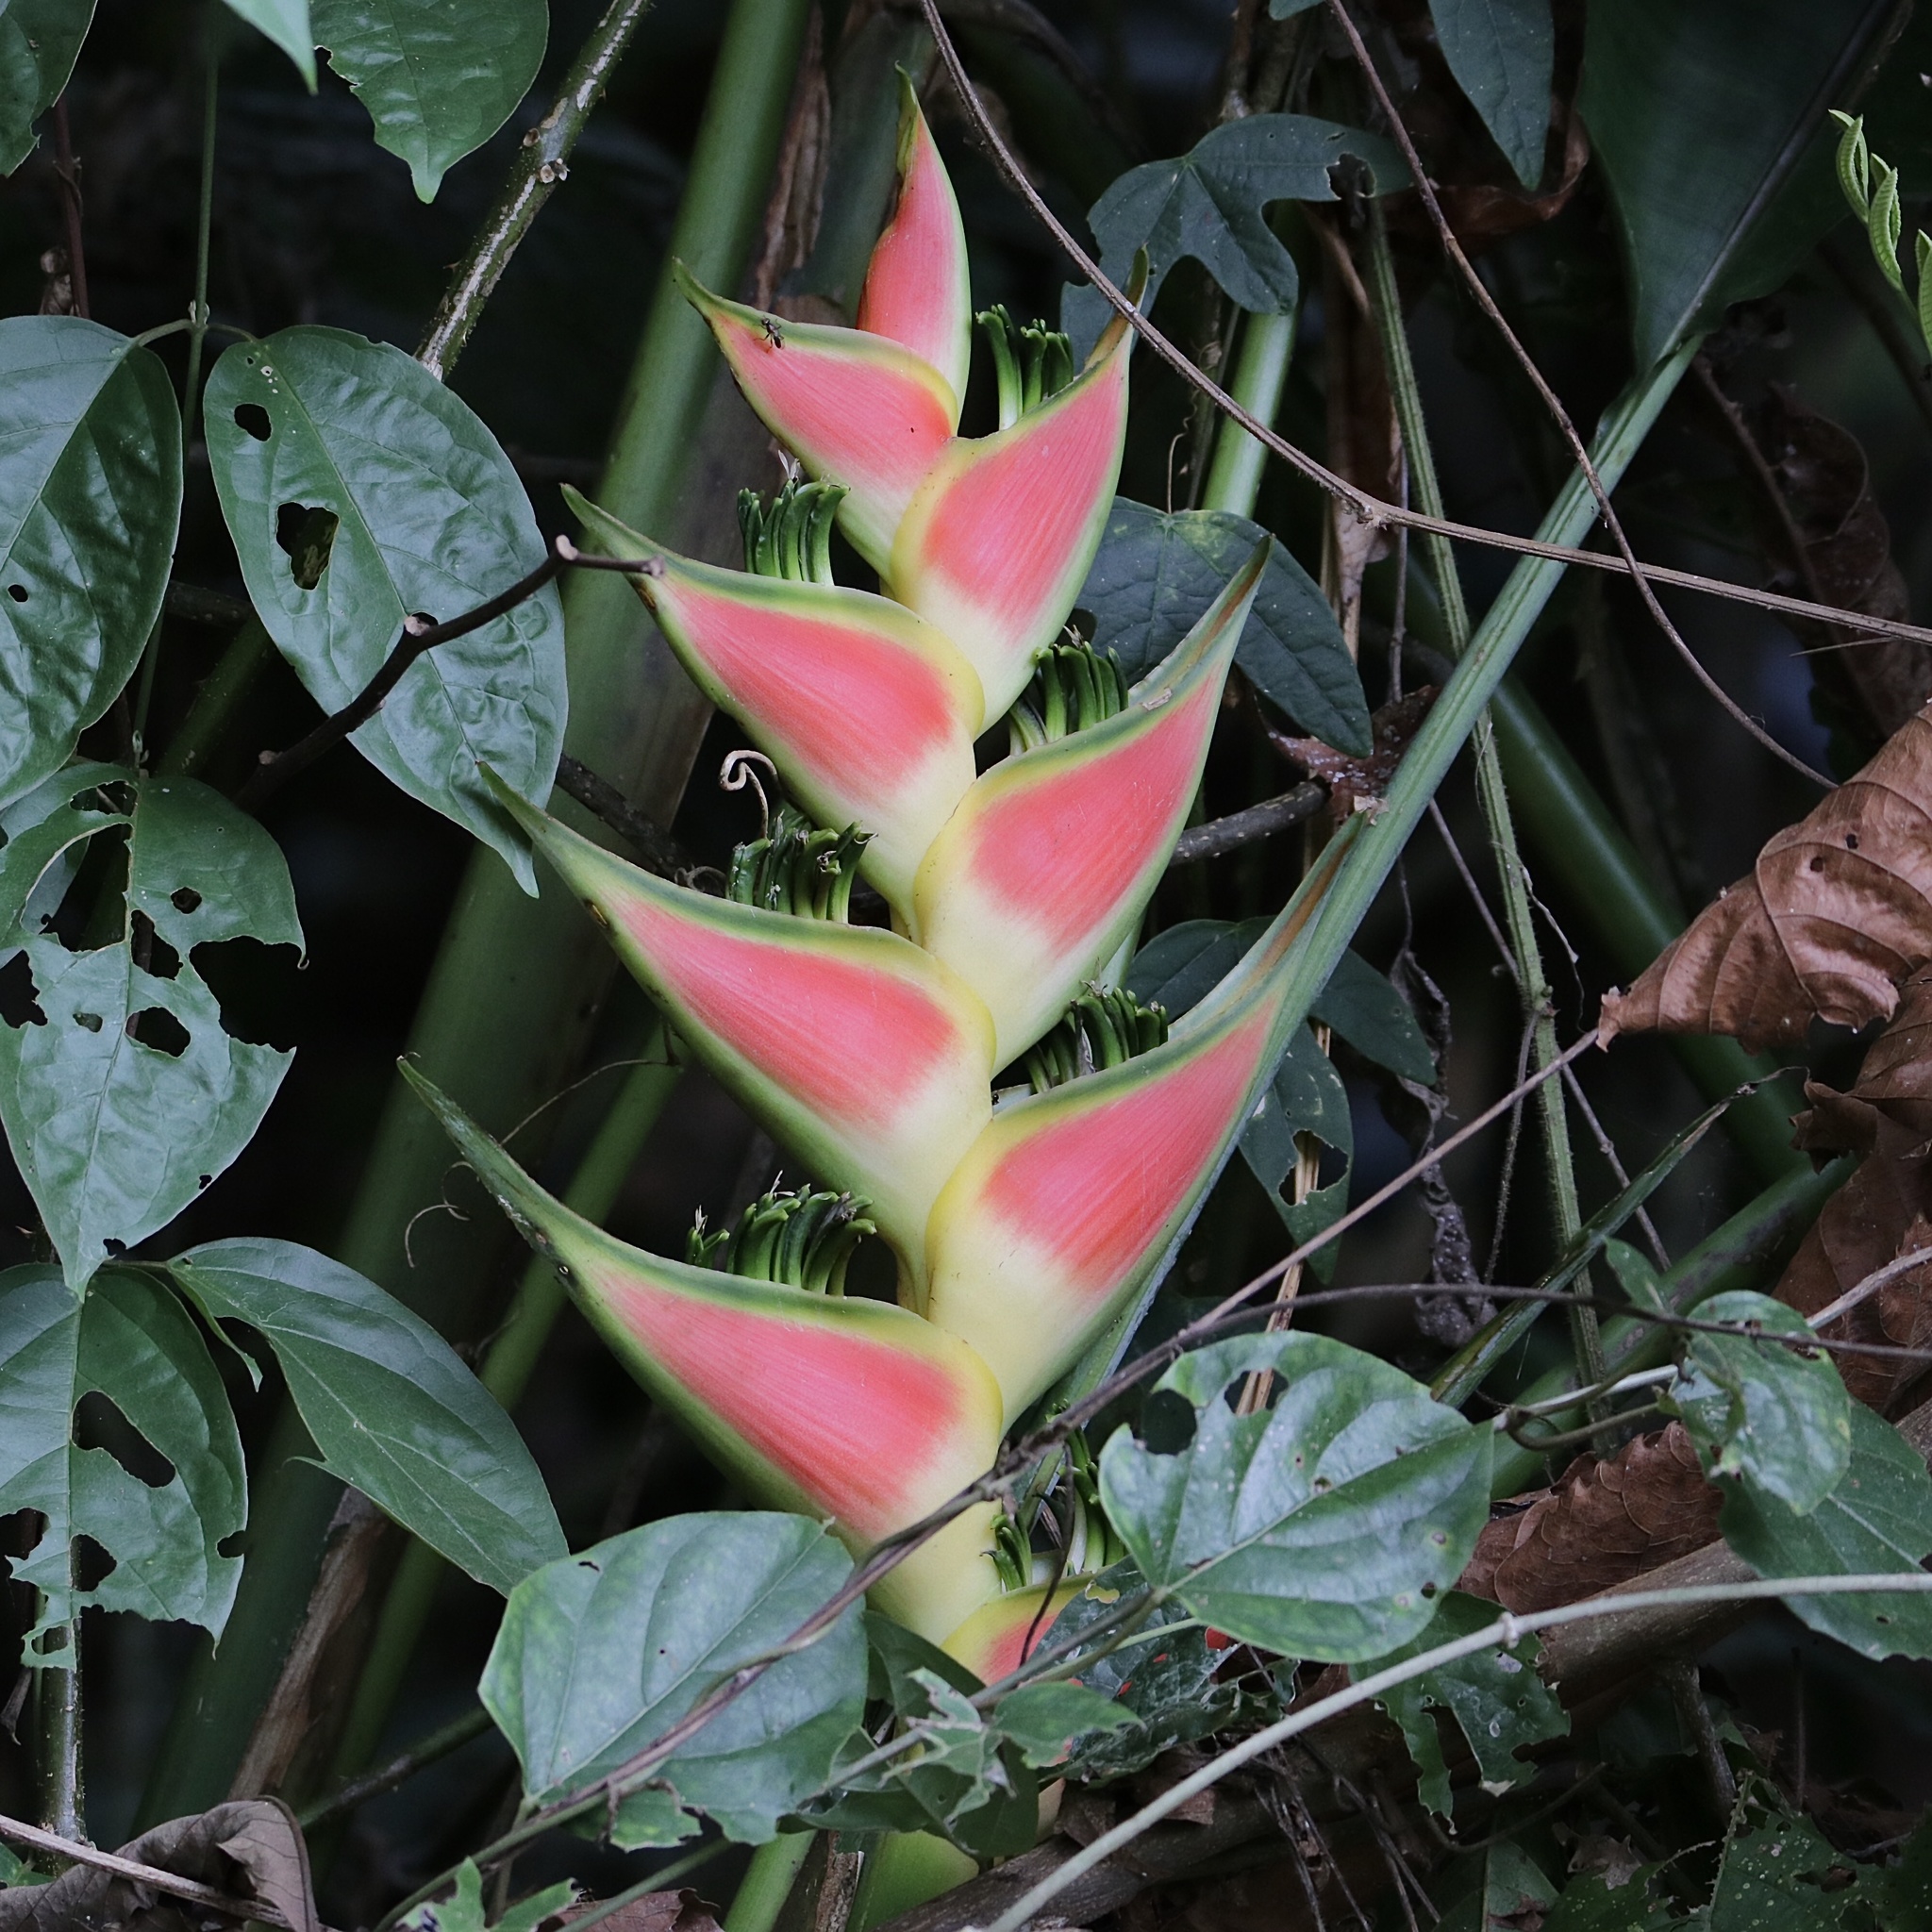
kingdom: Plantae
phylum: Tracheophyta
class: Liliopsida
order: Zingiberales
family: Heliconiaceae
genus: Heliconia
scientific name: Heliconia wagneriana
